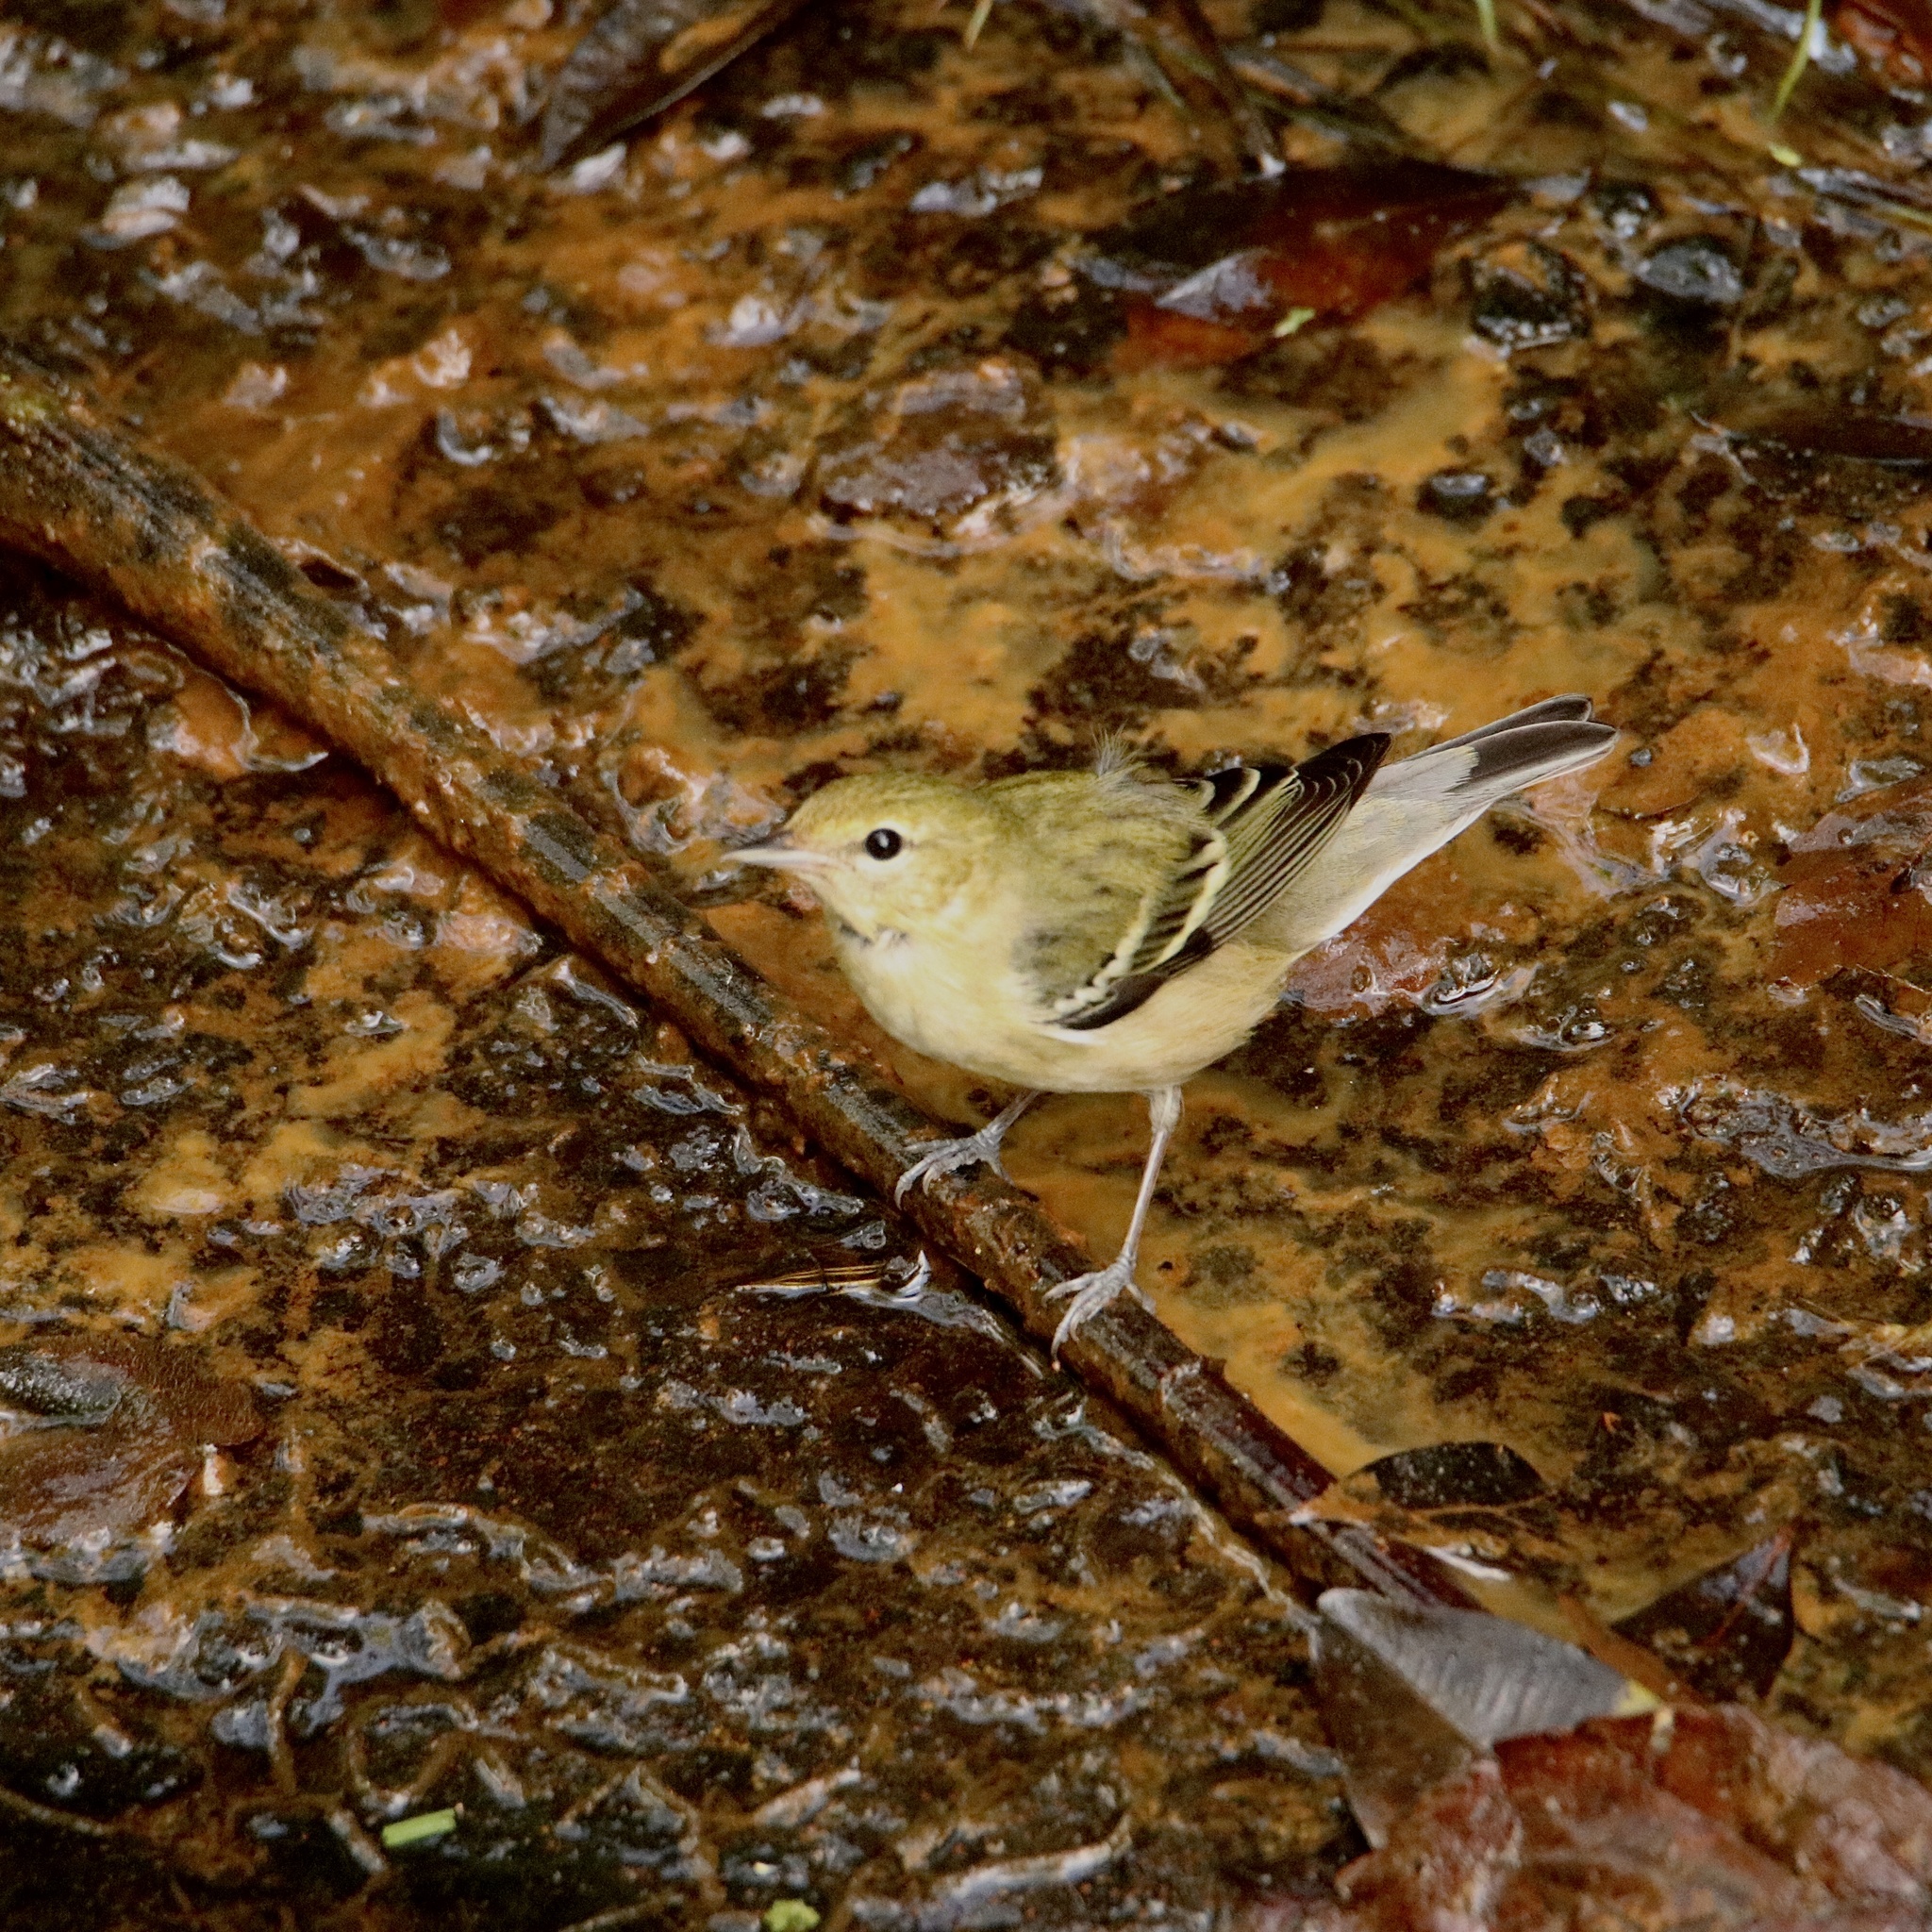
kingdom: Animalia
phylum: Chordata
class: Aves
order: Passeriformes
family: Parulidae
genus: Setophaga
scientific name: Setophaga castanea
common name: Bay-breasted warbler
